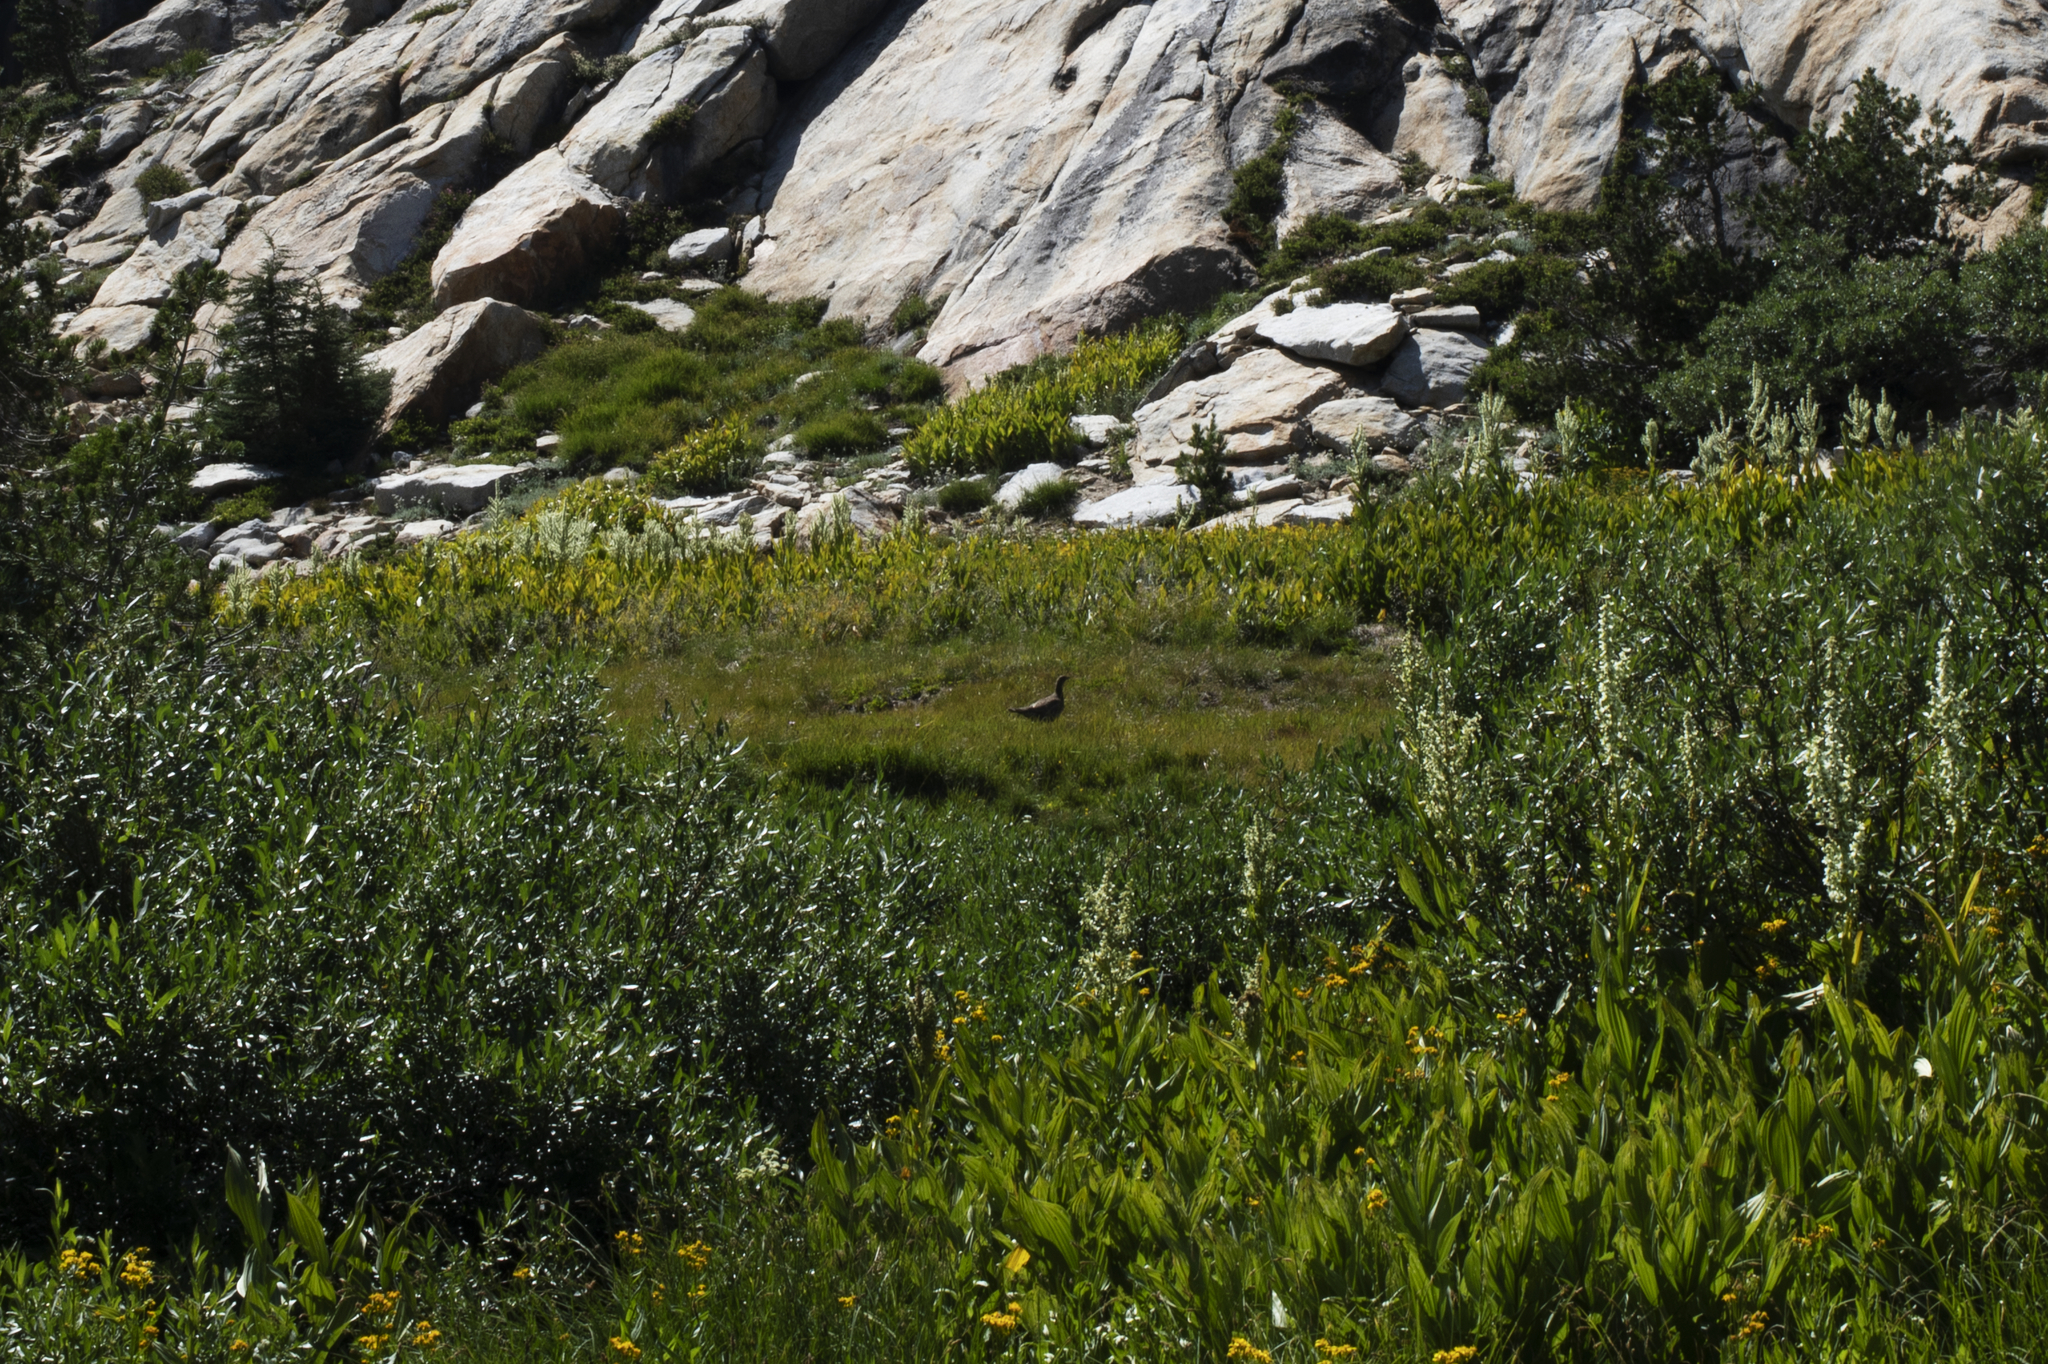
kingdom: Animalia
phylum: Chordata
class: Aves
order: Galliformes
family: Phasianidae
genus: Dendragapus
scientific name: Dendragapus fuliginosus
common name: Sooty grouse
